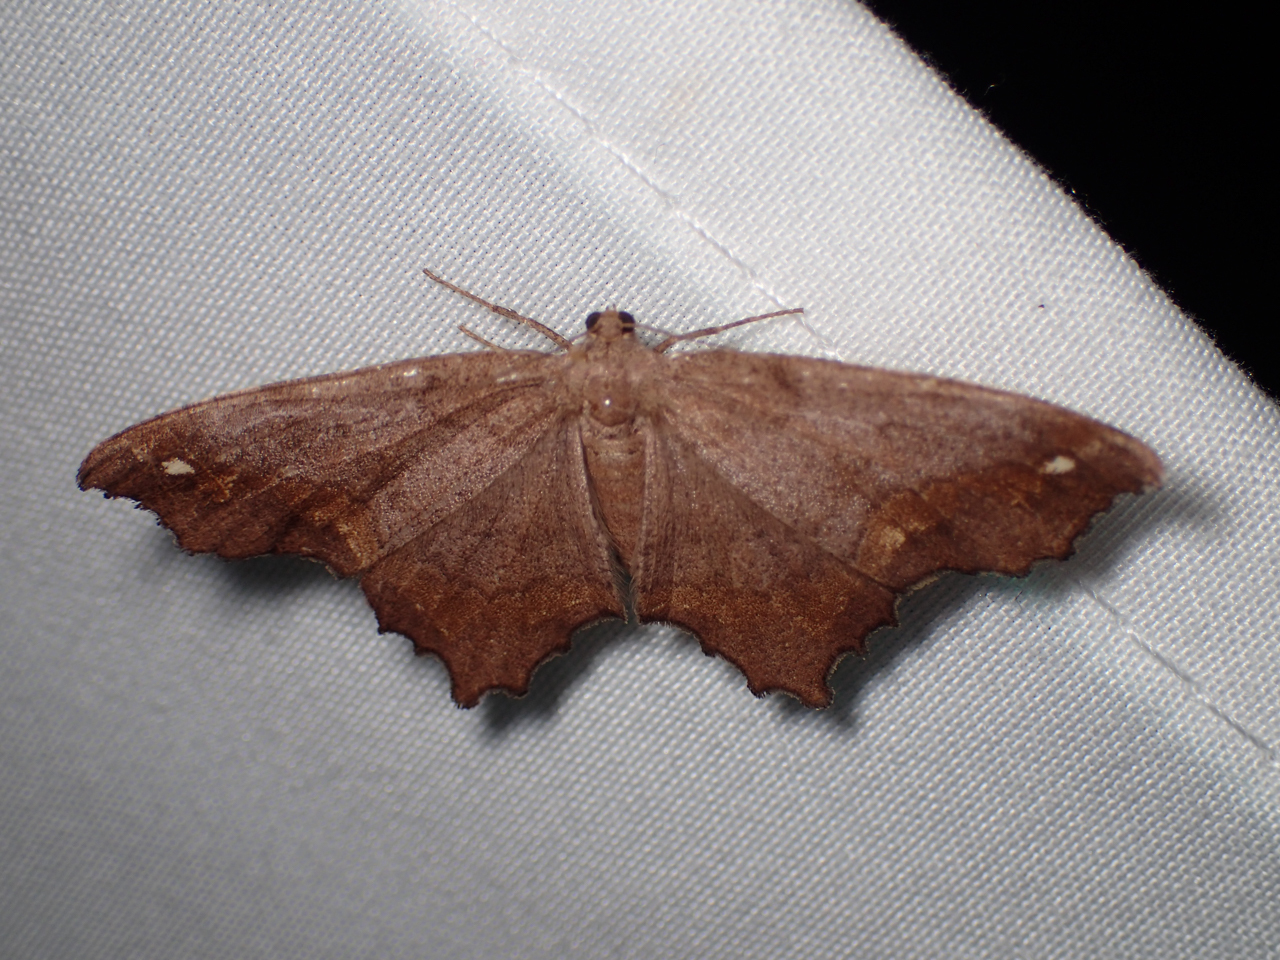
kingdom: Animalia
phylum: Arthropoda
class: Insecta
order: Lepidoptera
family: Geometridae
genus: Hypagyrtis
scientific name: Hypagyrtis esther
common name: Esther moth
